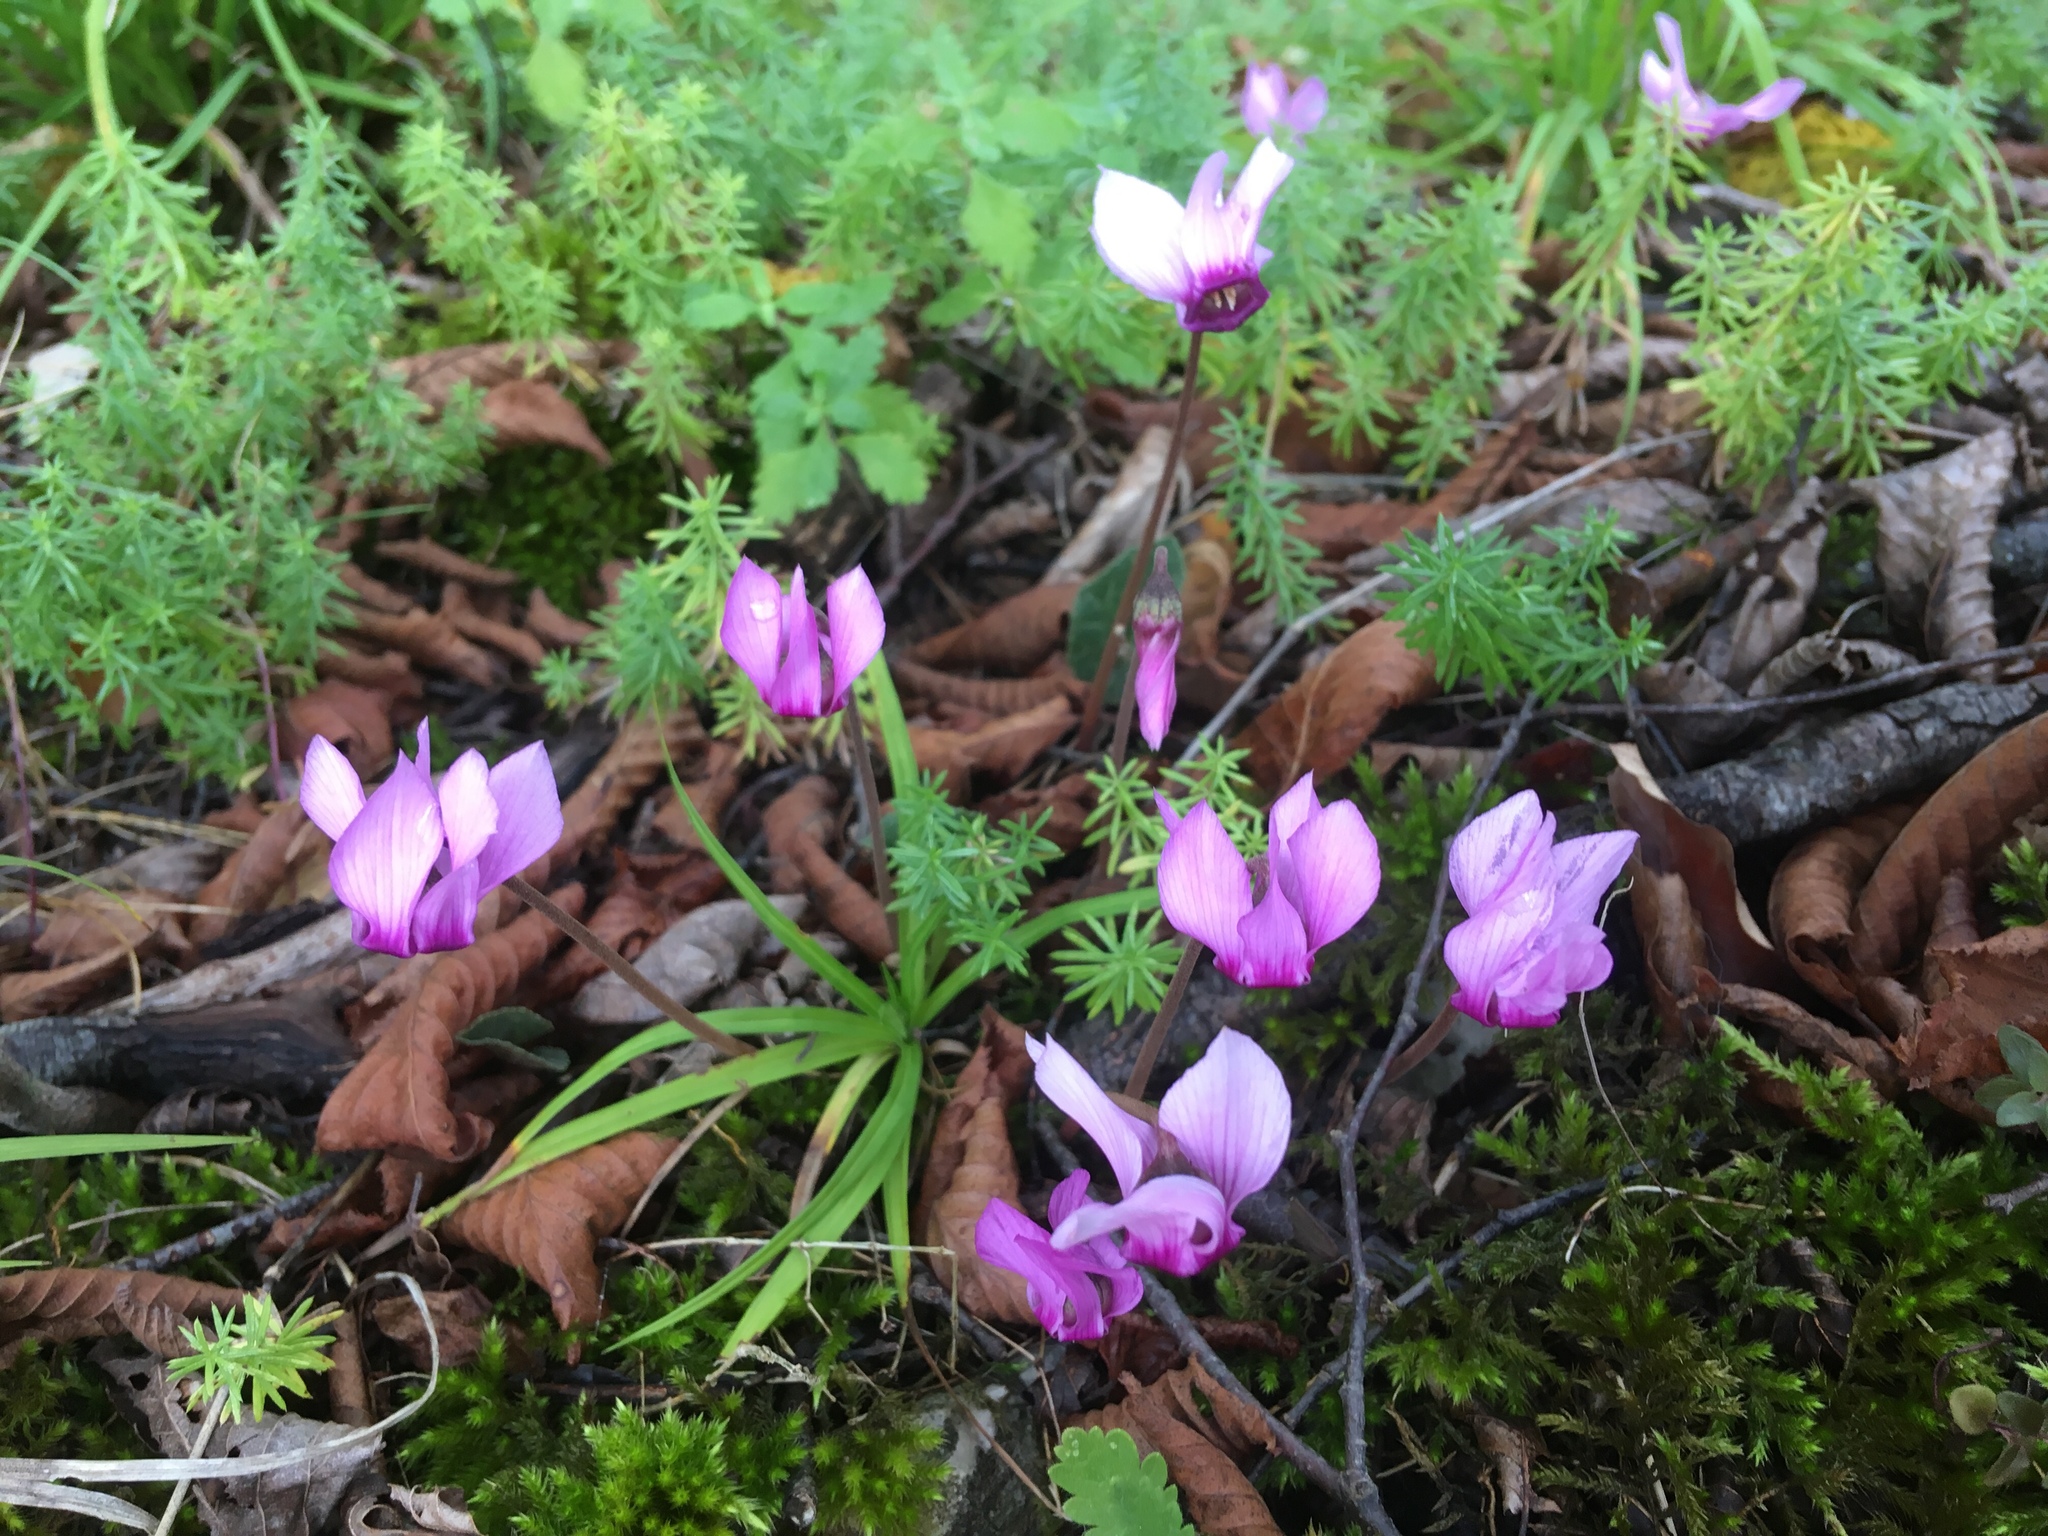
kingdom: Plantae
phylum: Tracheophyta
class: Magnoliopsida
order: Ericales
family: Primulaceae
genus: Cyclamen
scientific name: Cyclamen purpurascens
